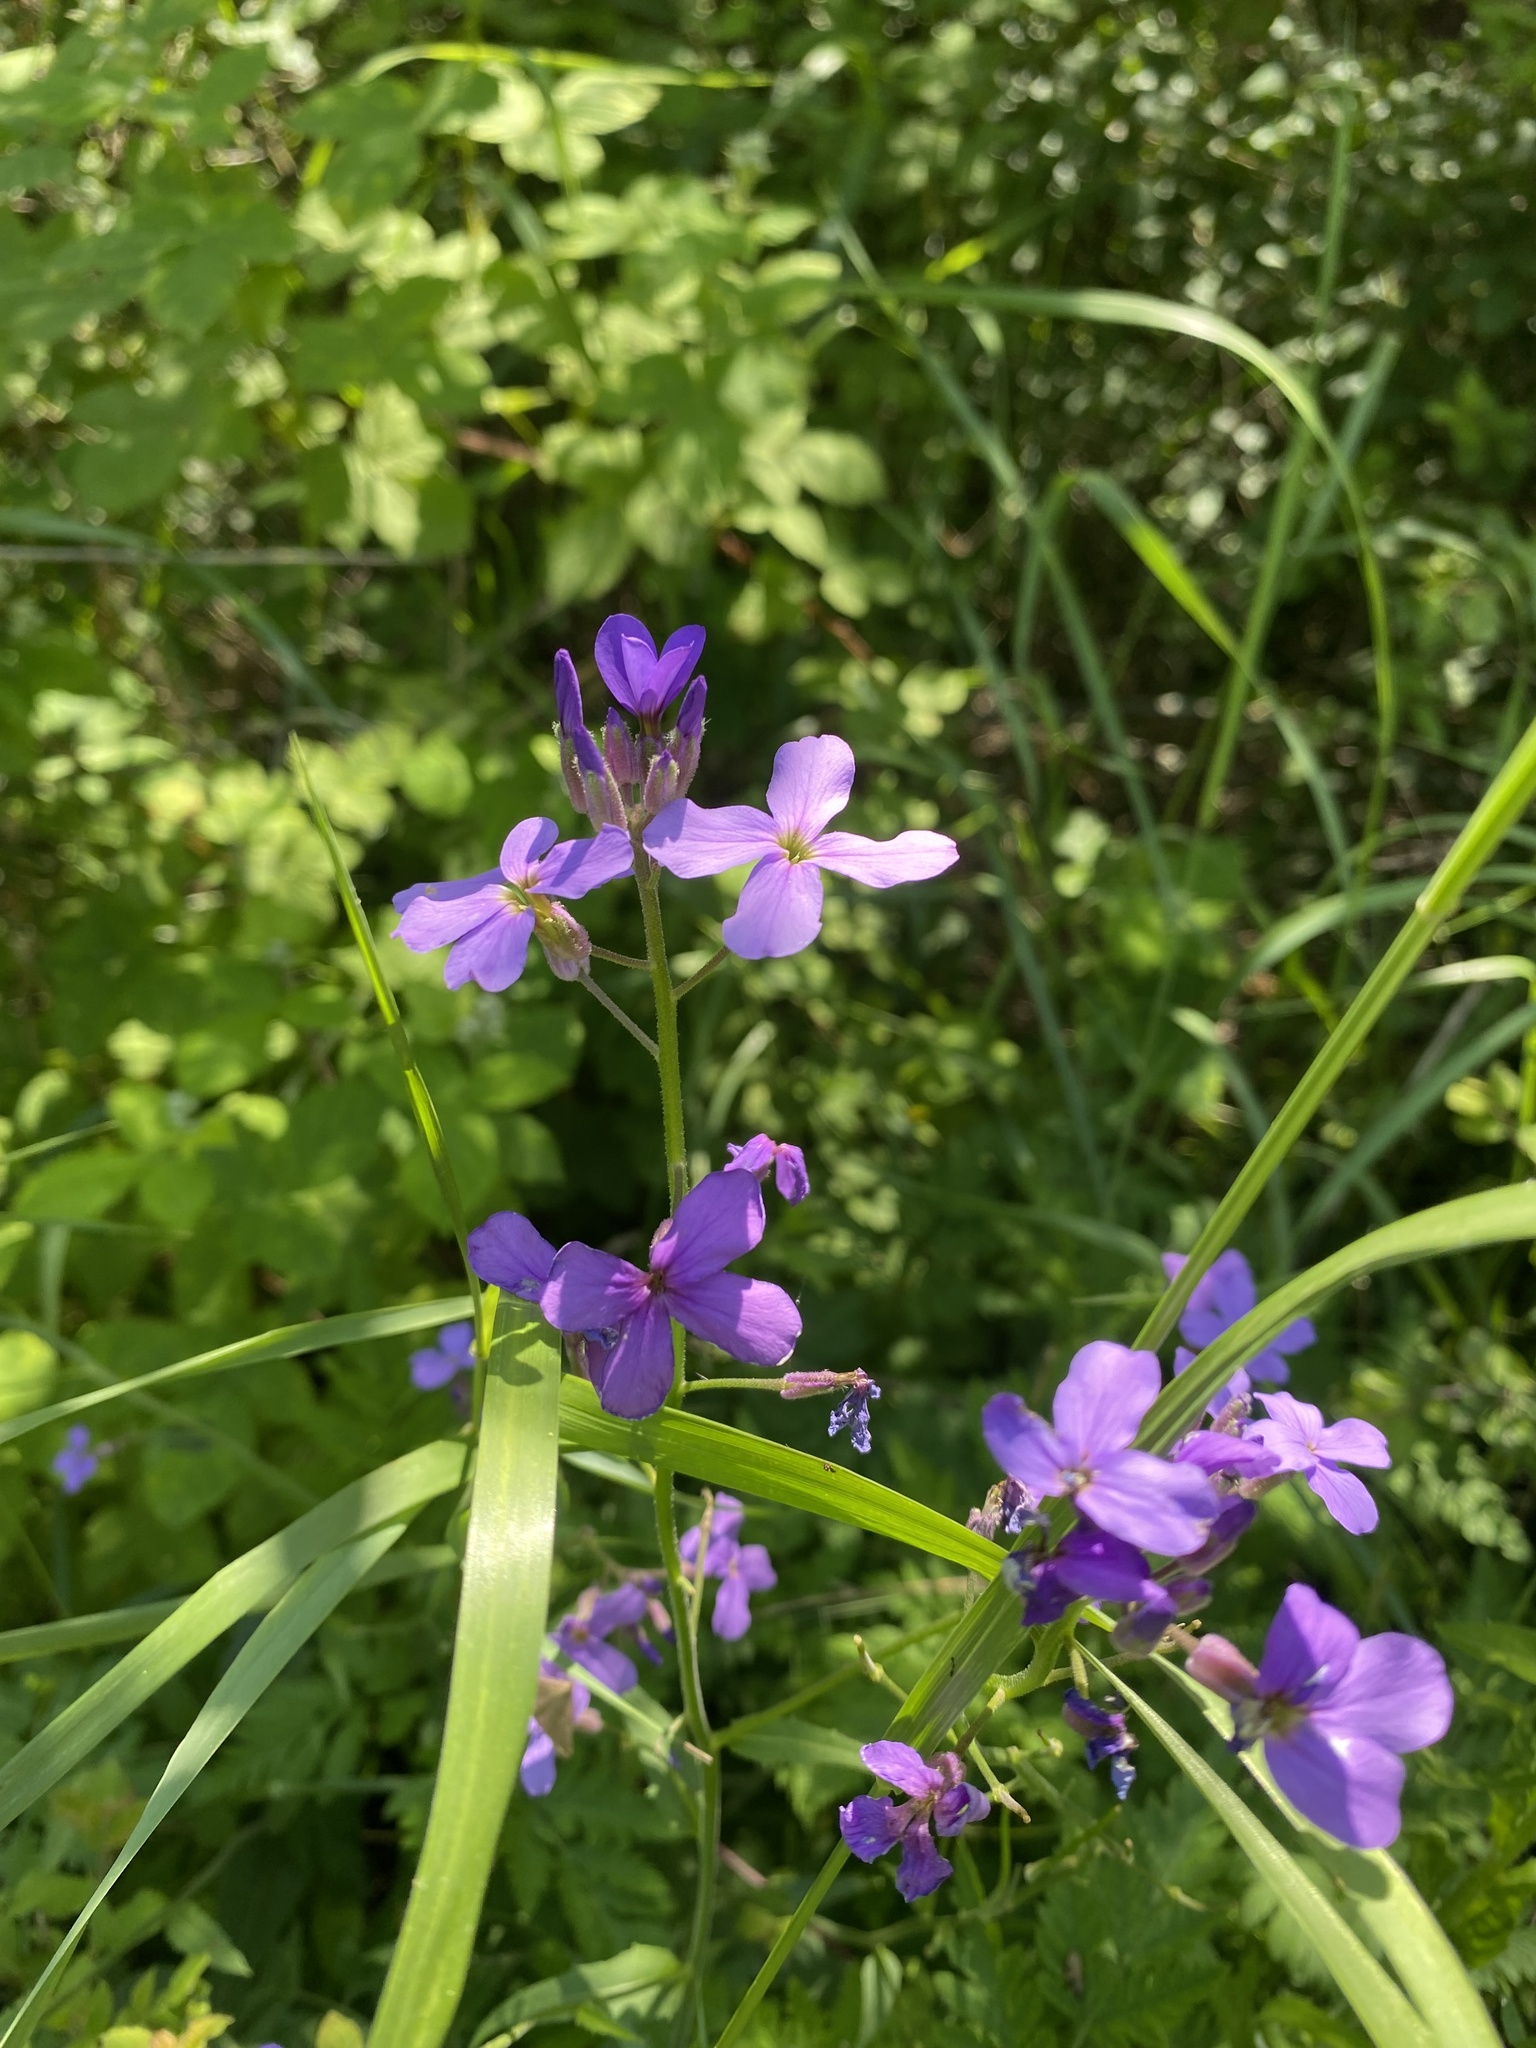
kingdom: Plantae
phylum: Tracheophyta
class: Magnoliopsida
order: Brassicales
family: Brassicaceae
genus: Hesperis
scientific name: Hesperis matronalis
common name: Dame's-violet
